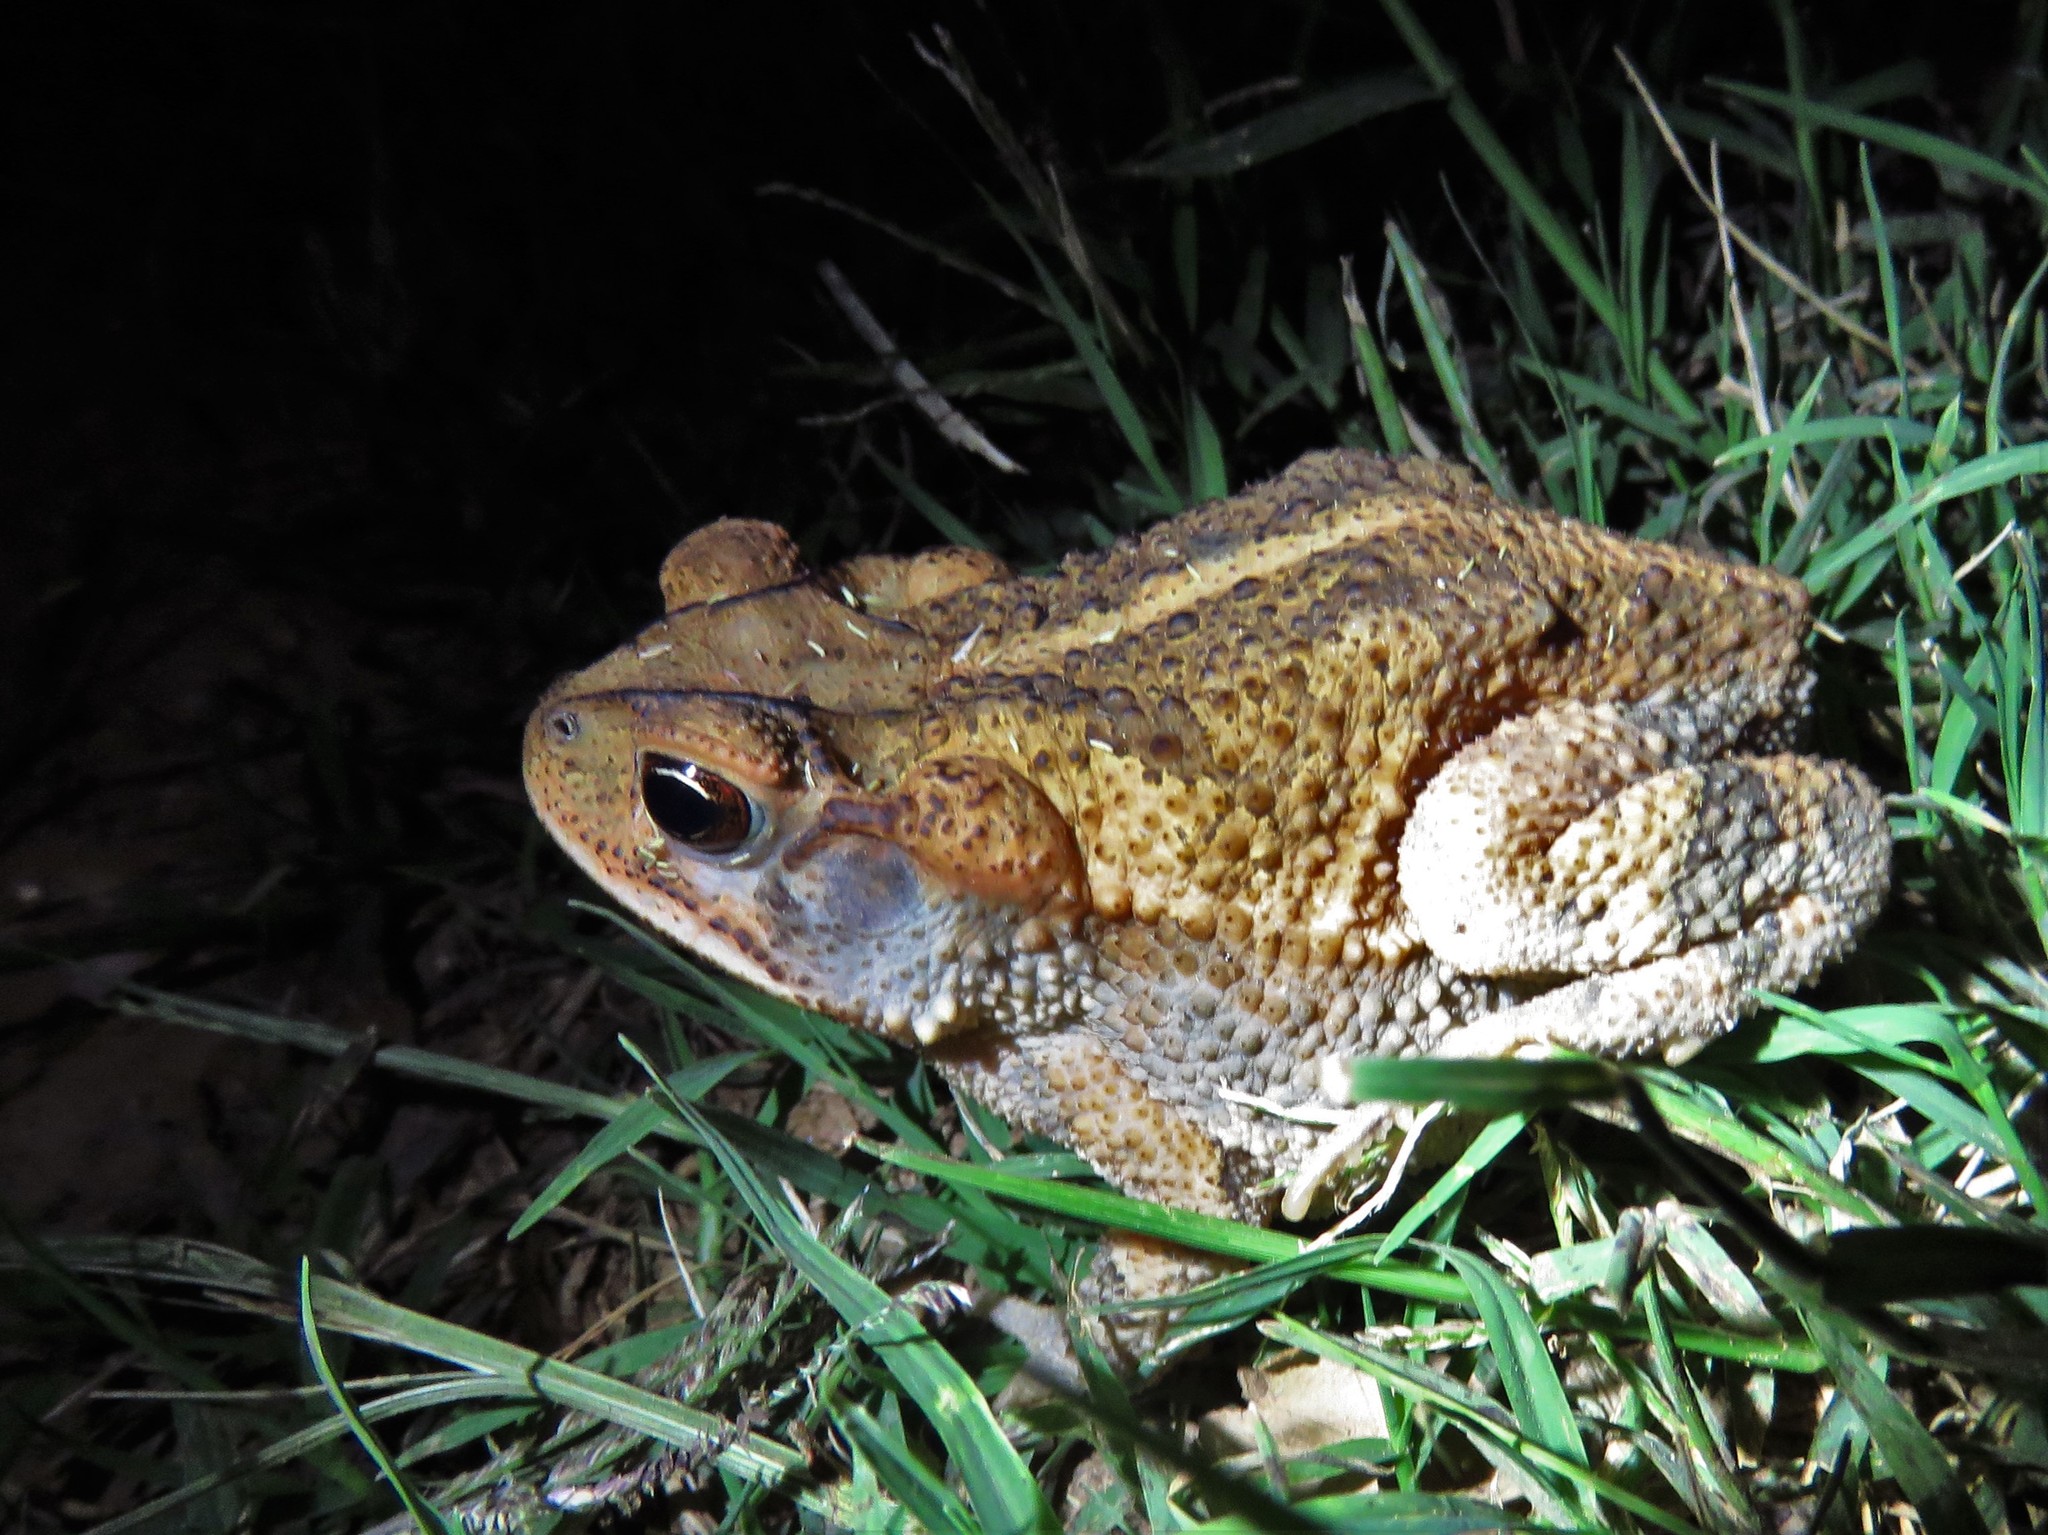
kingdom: Animalia
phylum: Chordata
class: Amphibia
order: Anura
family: Bufonidae
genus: Incilius
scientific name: Incilius nebulifer
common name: Gulf coast toad
